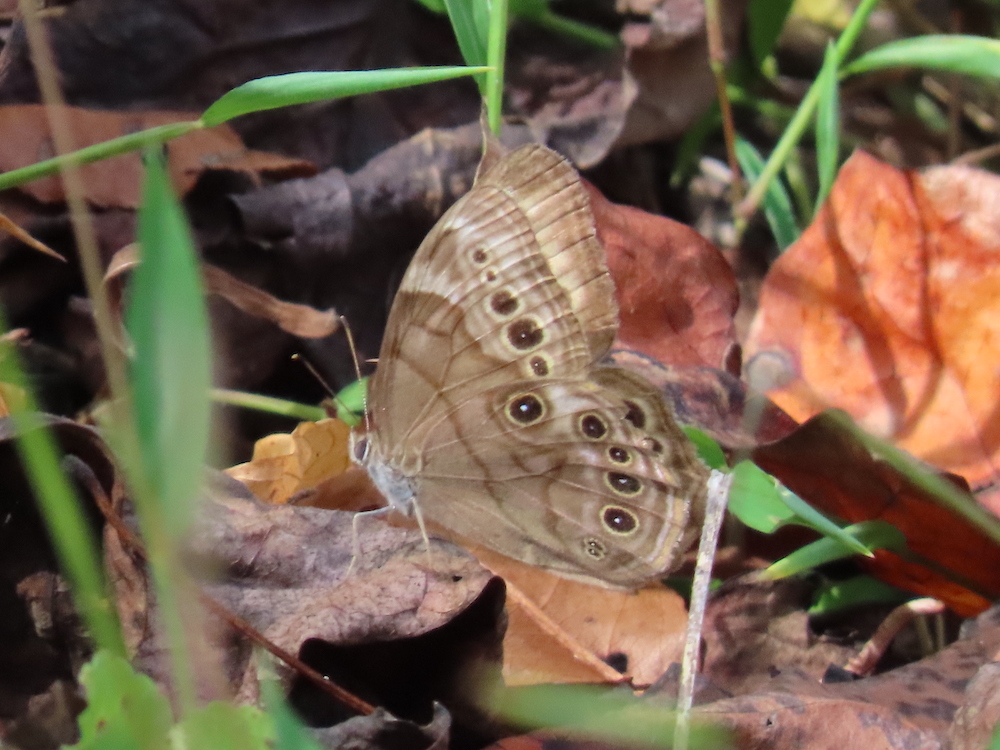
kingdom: Animalia
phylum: Arthropoda
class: Insecta
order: Lepidoptera
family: Nymphalidae
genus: Lethe
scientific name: Lethe anthedon
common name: Northern pearly-eye
